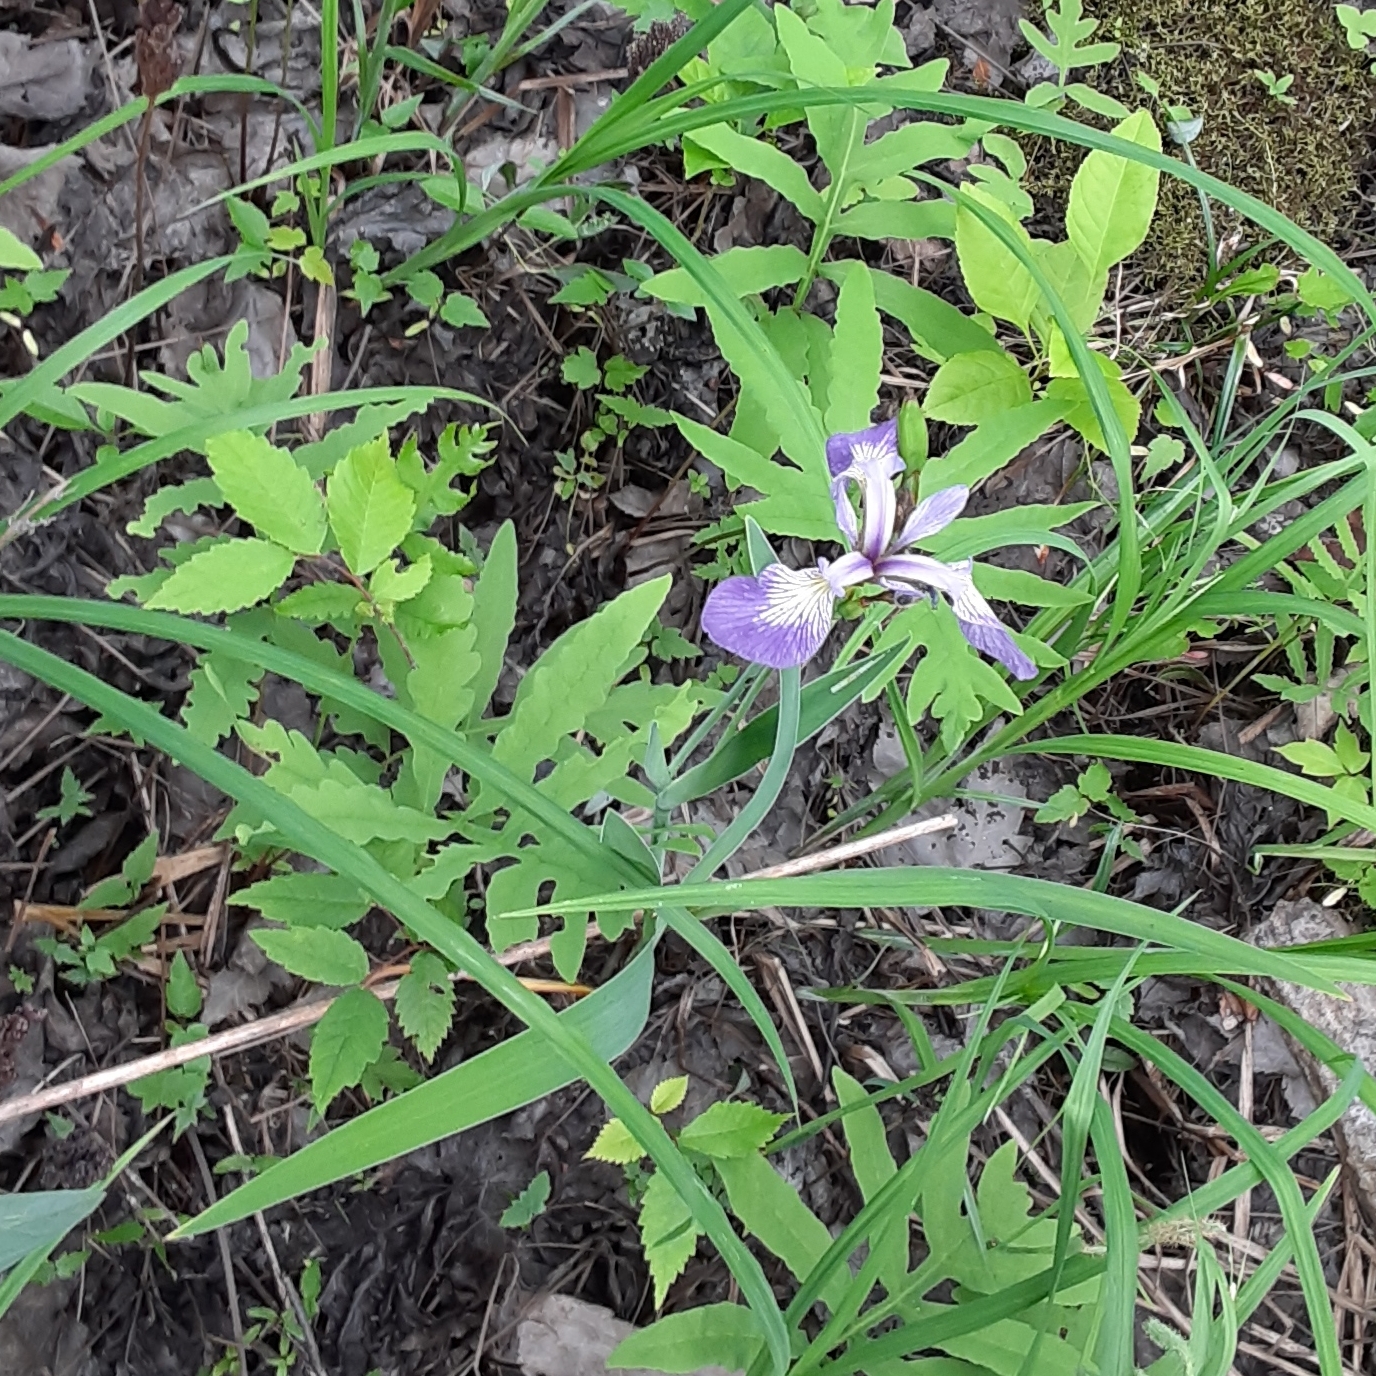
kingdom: Plantae
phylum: Tracheophyta
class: Liliopsida
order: Asparagales
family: Iridaceae
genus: Iris
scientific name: Iris versicolor
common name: Purple iris
